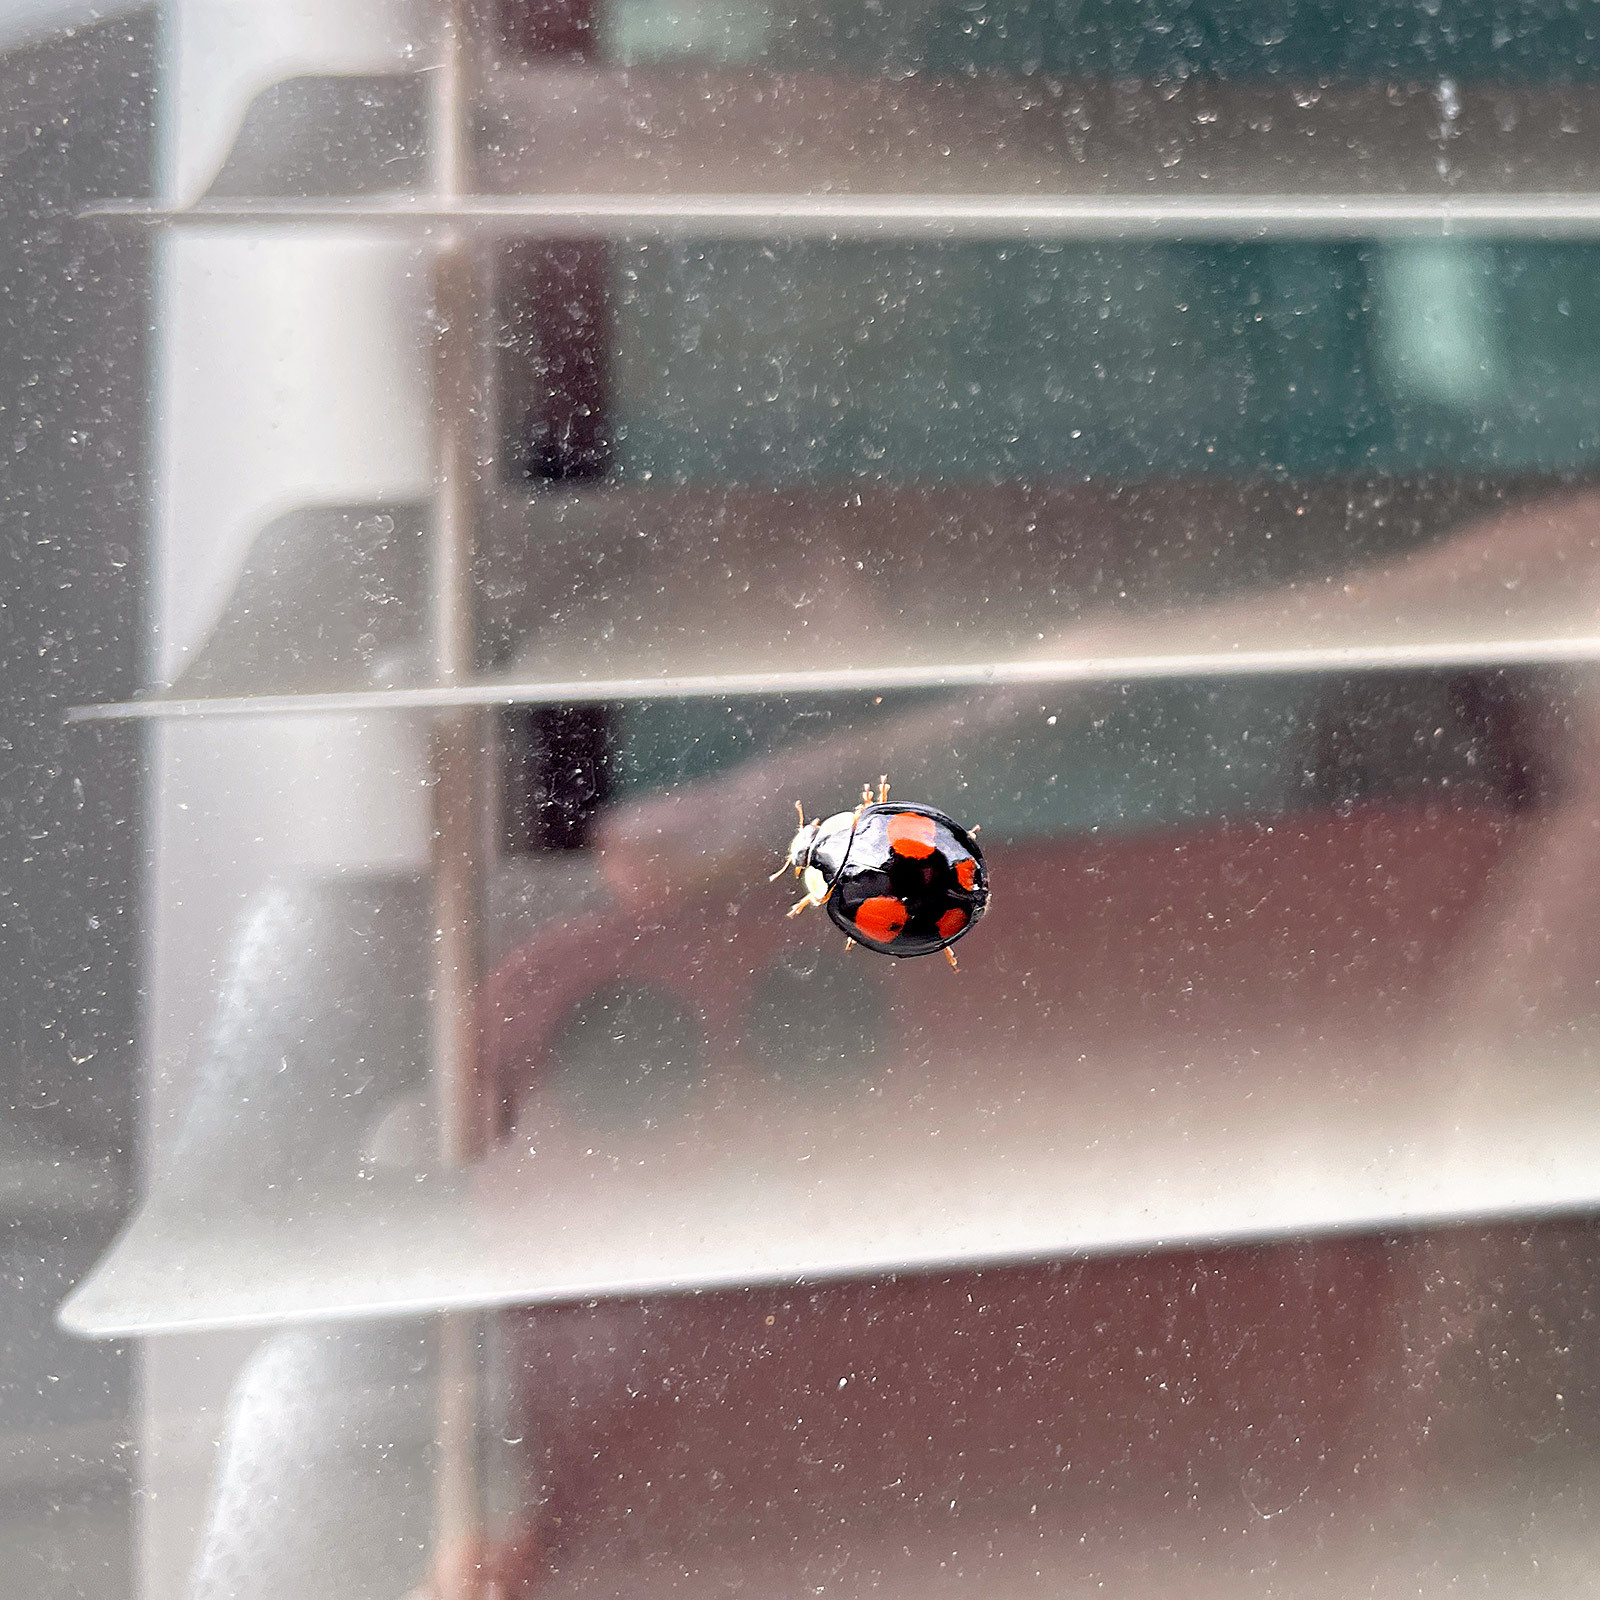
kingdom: Animalia
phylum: Arthropoda
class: Insecta
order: Coleoptera
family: Coccinellidae
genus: Harmonia
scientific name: Harmonia axyridis
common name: Harlequin ladybird
